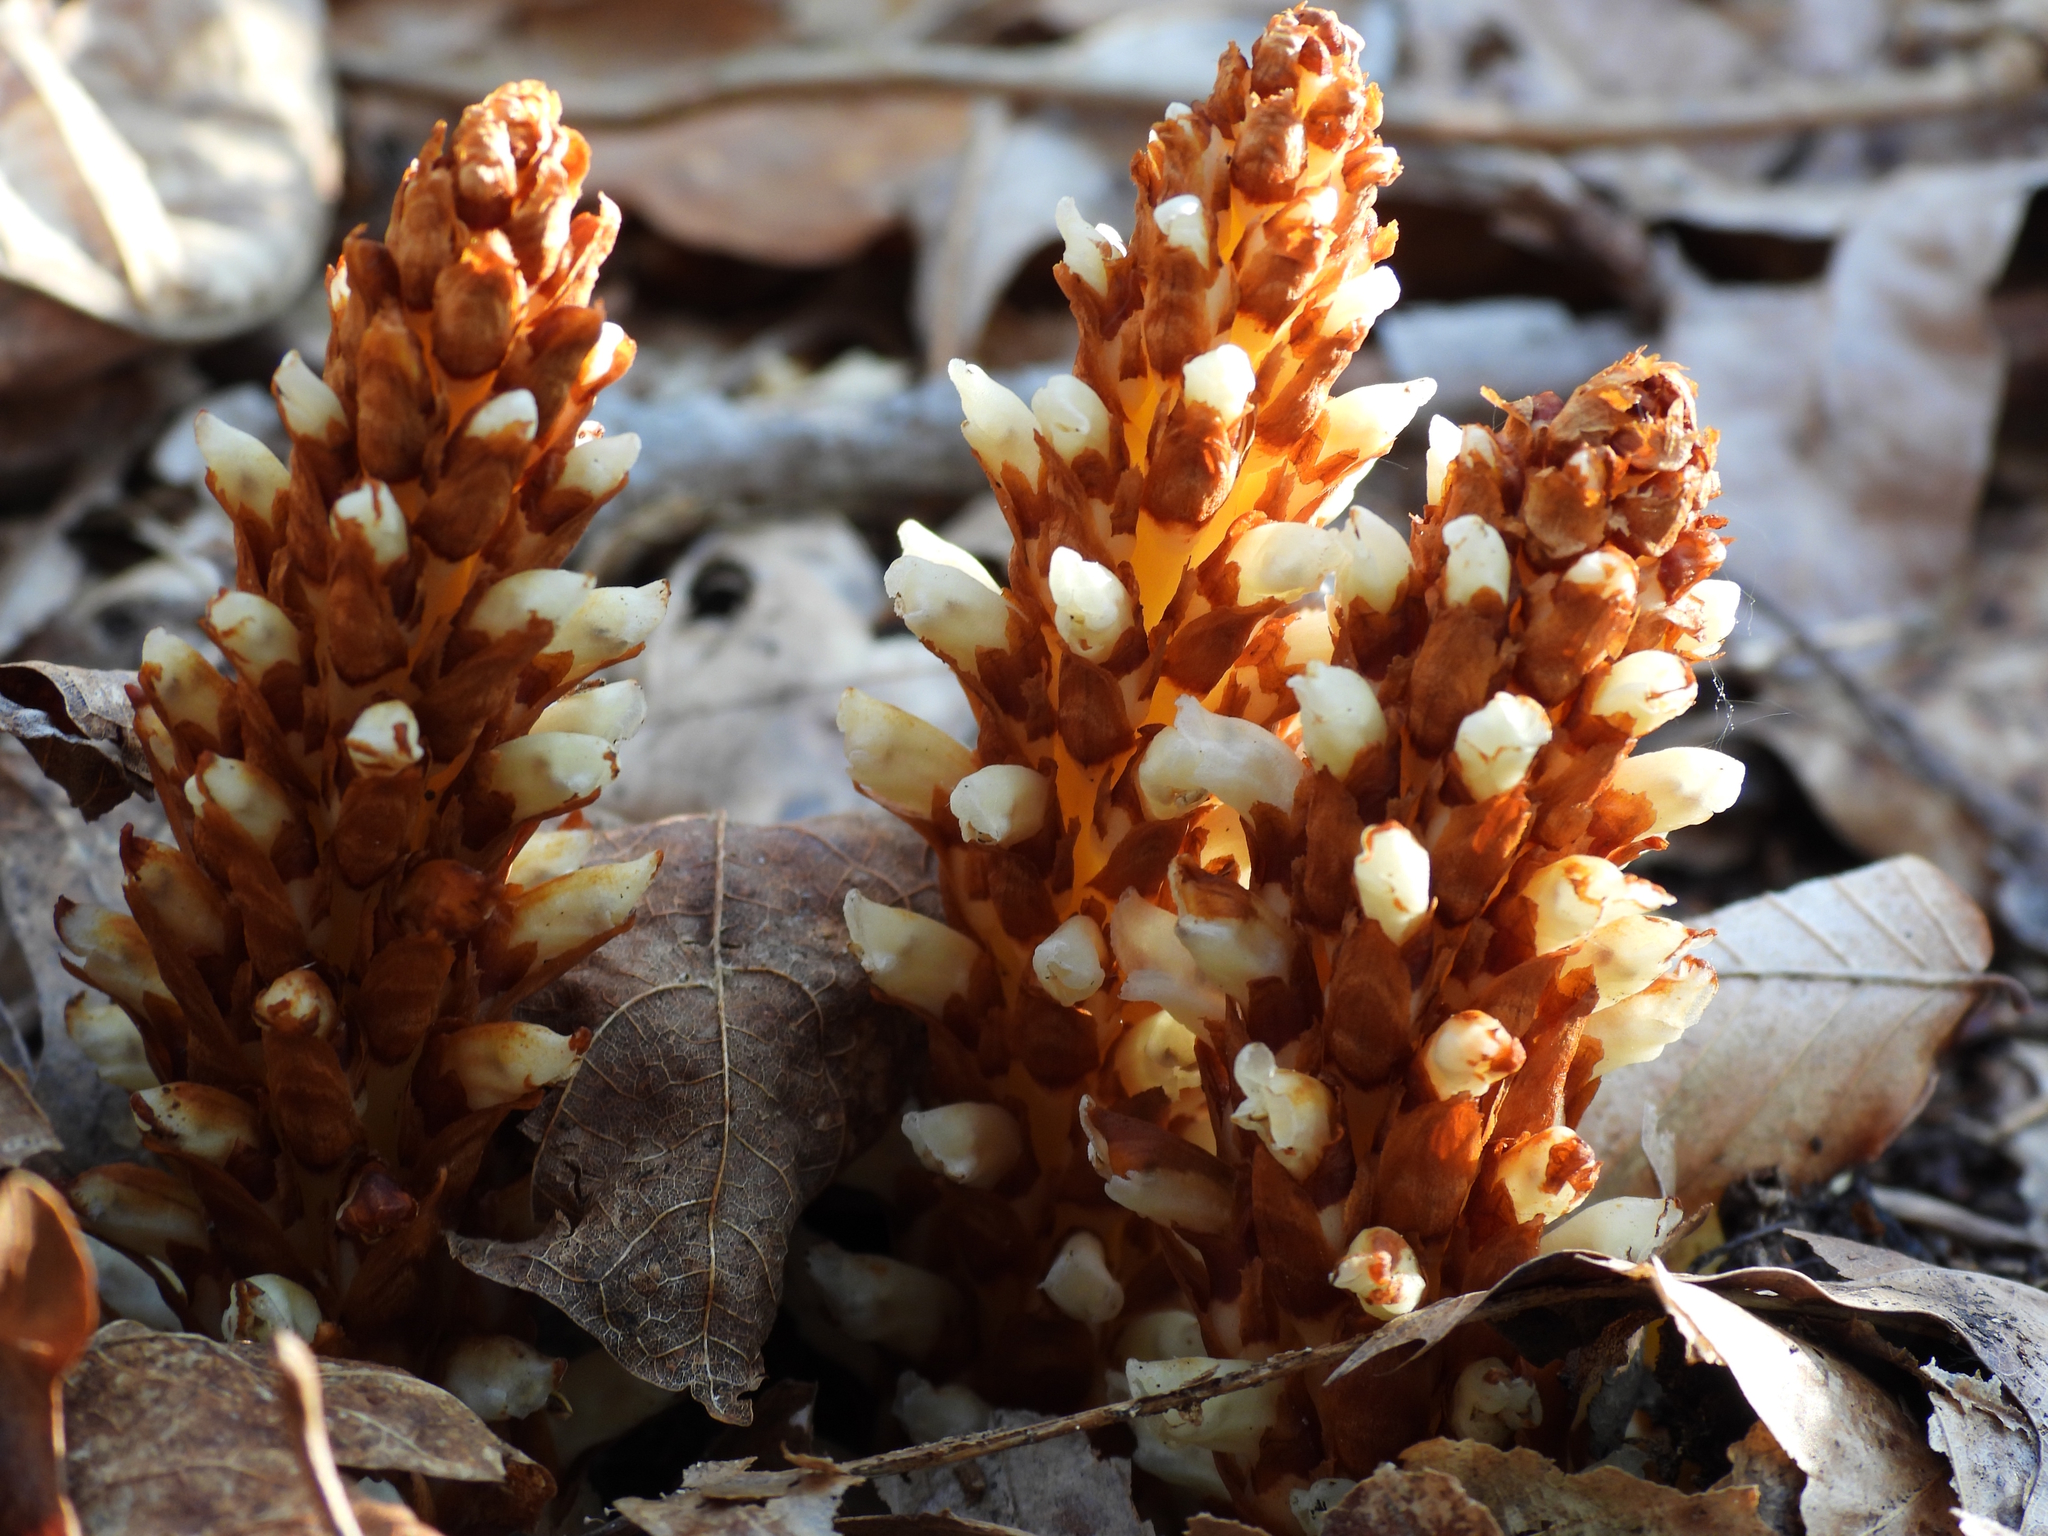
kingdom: Plantae
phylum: Tracheophyta
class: Magnoliopsida
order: Lamiales
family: Orobanchaceae
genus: Conopholis
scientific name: Conopholis americana
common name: American cancer-root
